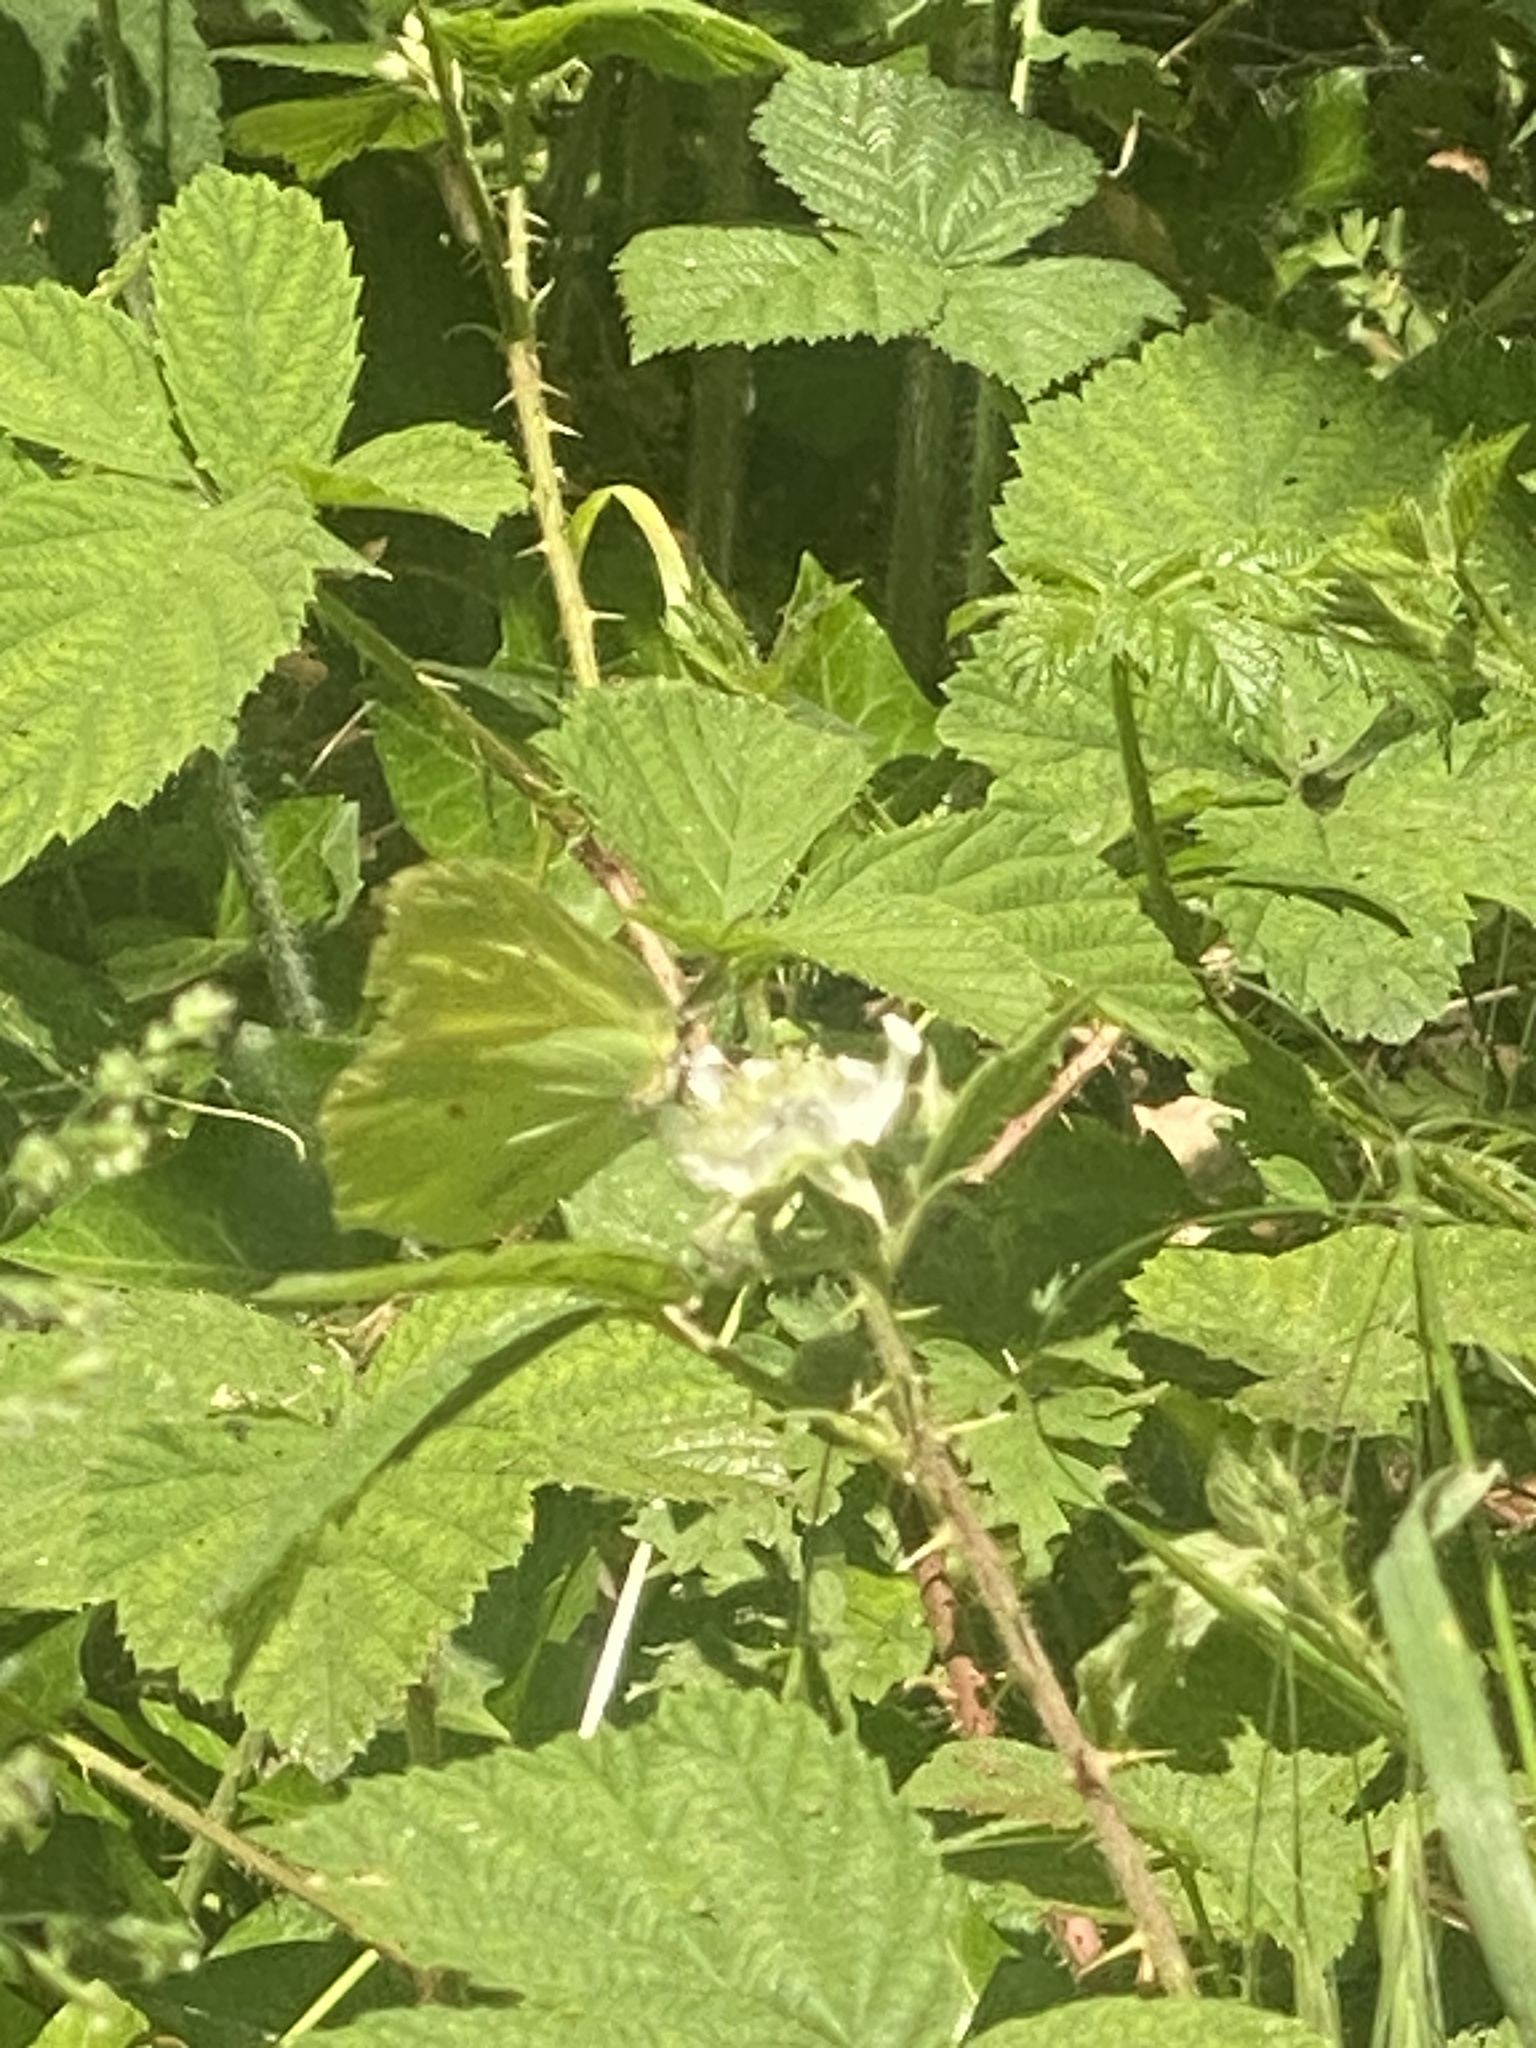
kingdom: Animalia
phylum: Arthropoda
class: Insecta
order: Lepidoptera
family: Pieridae
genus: Gonepteryx
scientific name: Gonepteryx rhamni
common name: Brimstone
